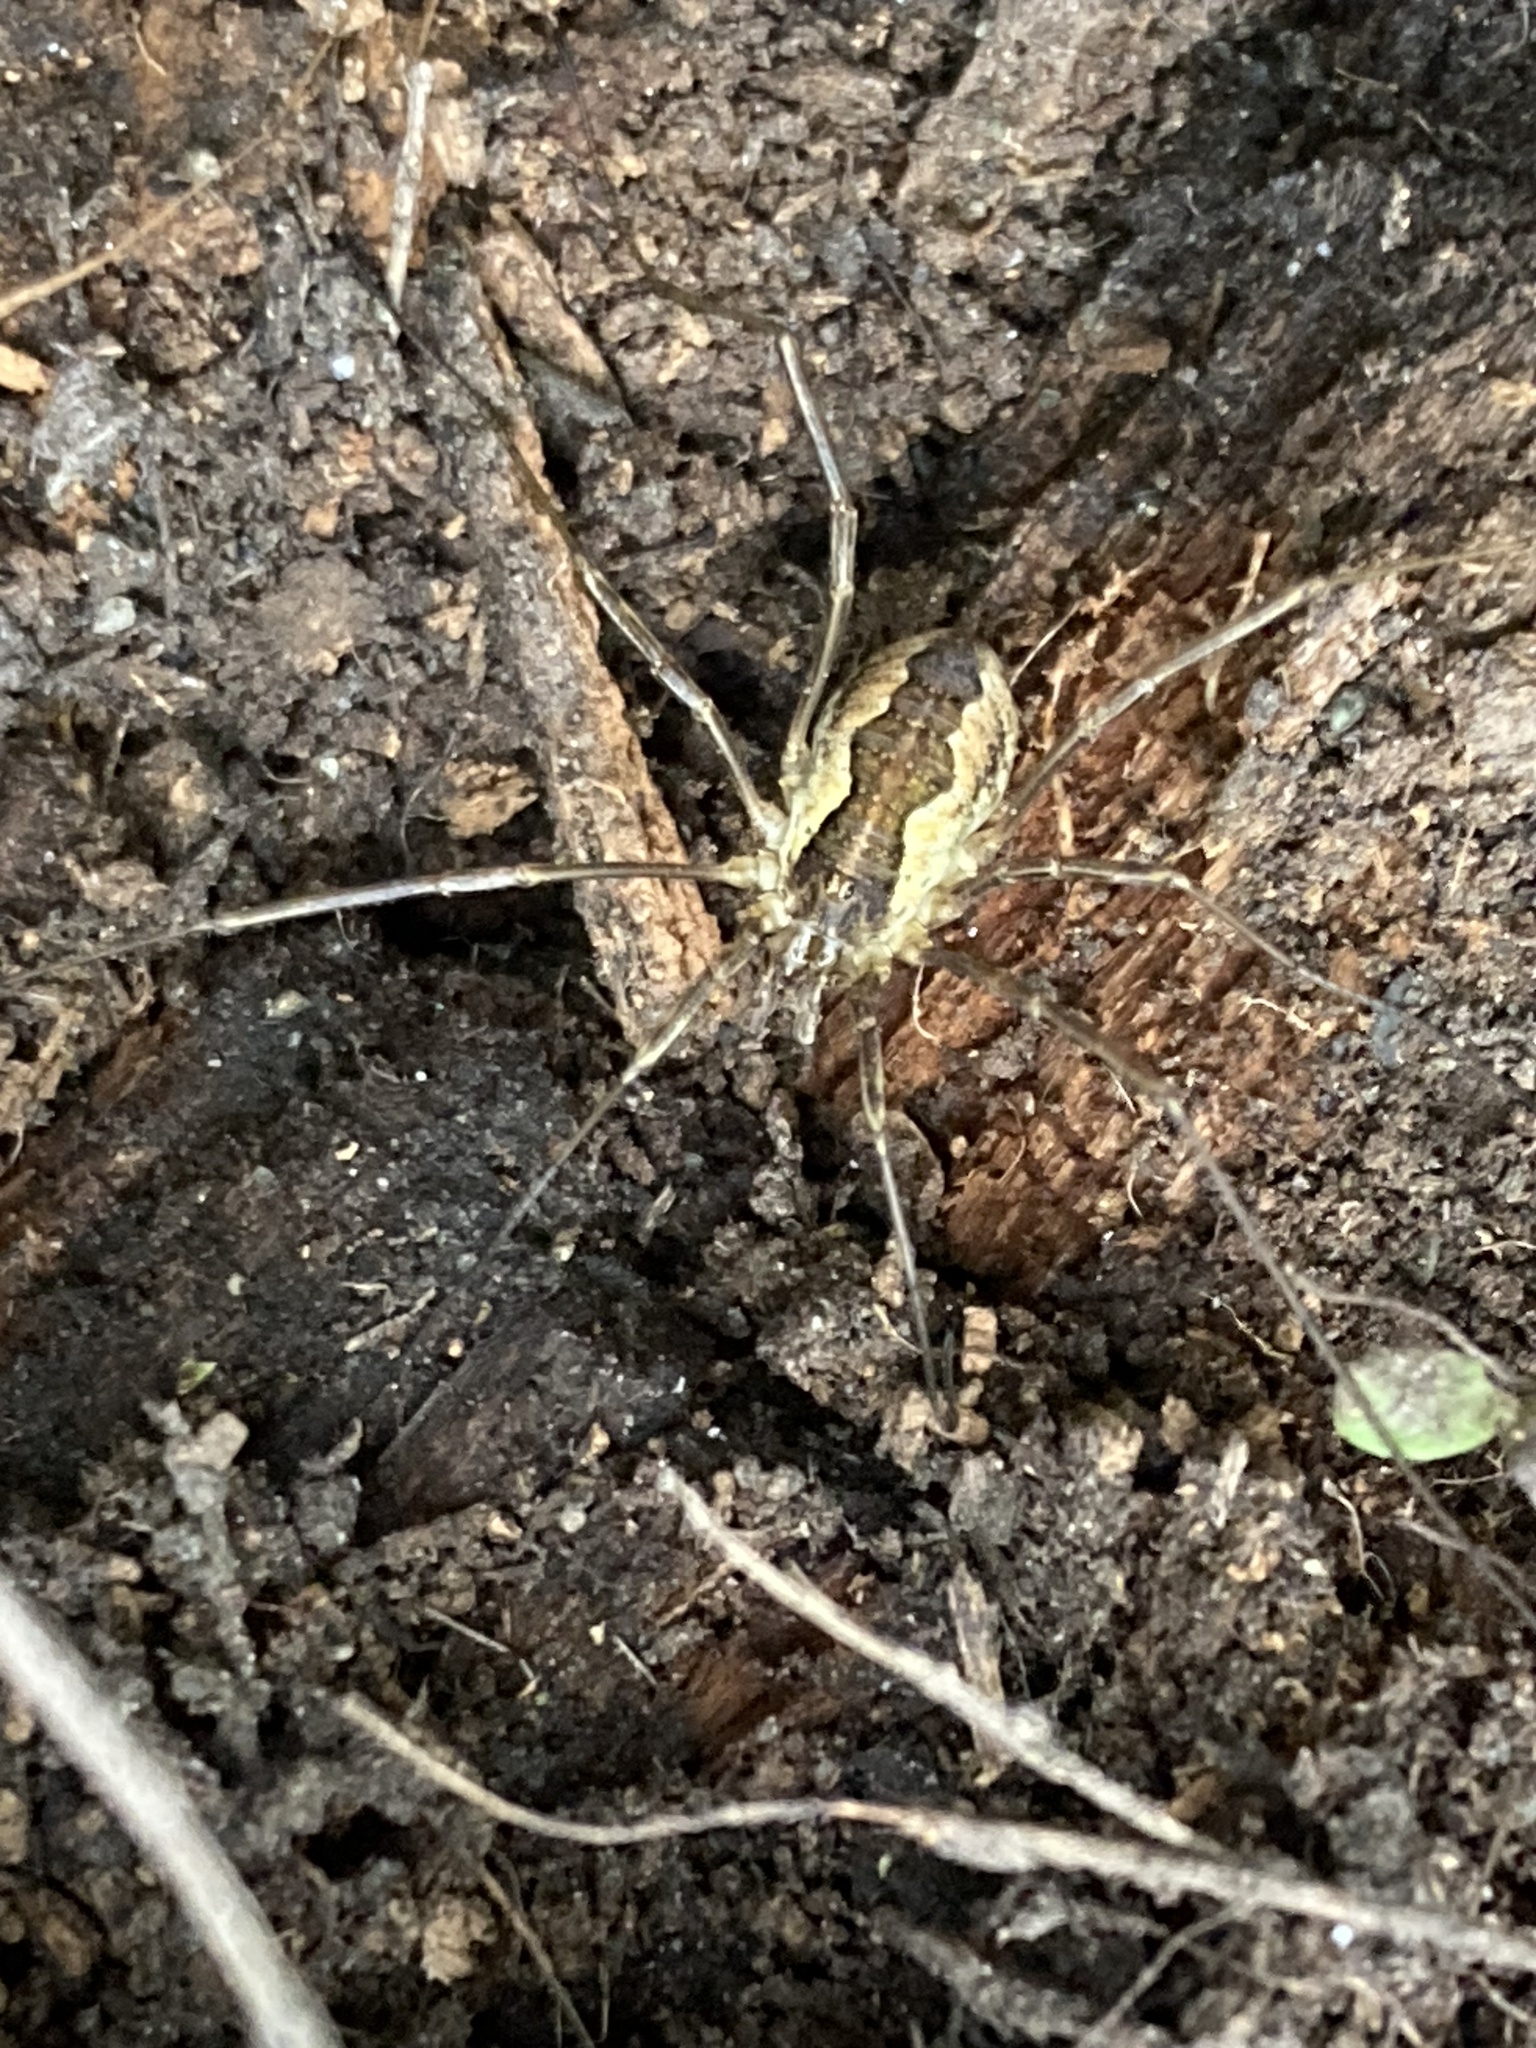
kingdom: Animalia
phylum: Arthropoda
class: Arachnida
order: Opiliones
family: Phalangiidae
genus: Mitopus
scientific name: Mitopus morio
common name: Saddleback harvestman
